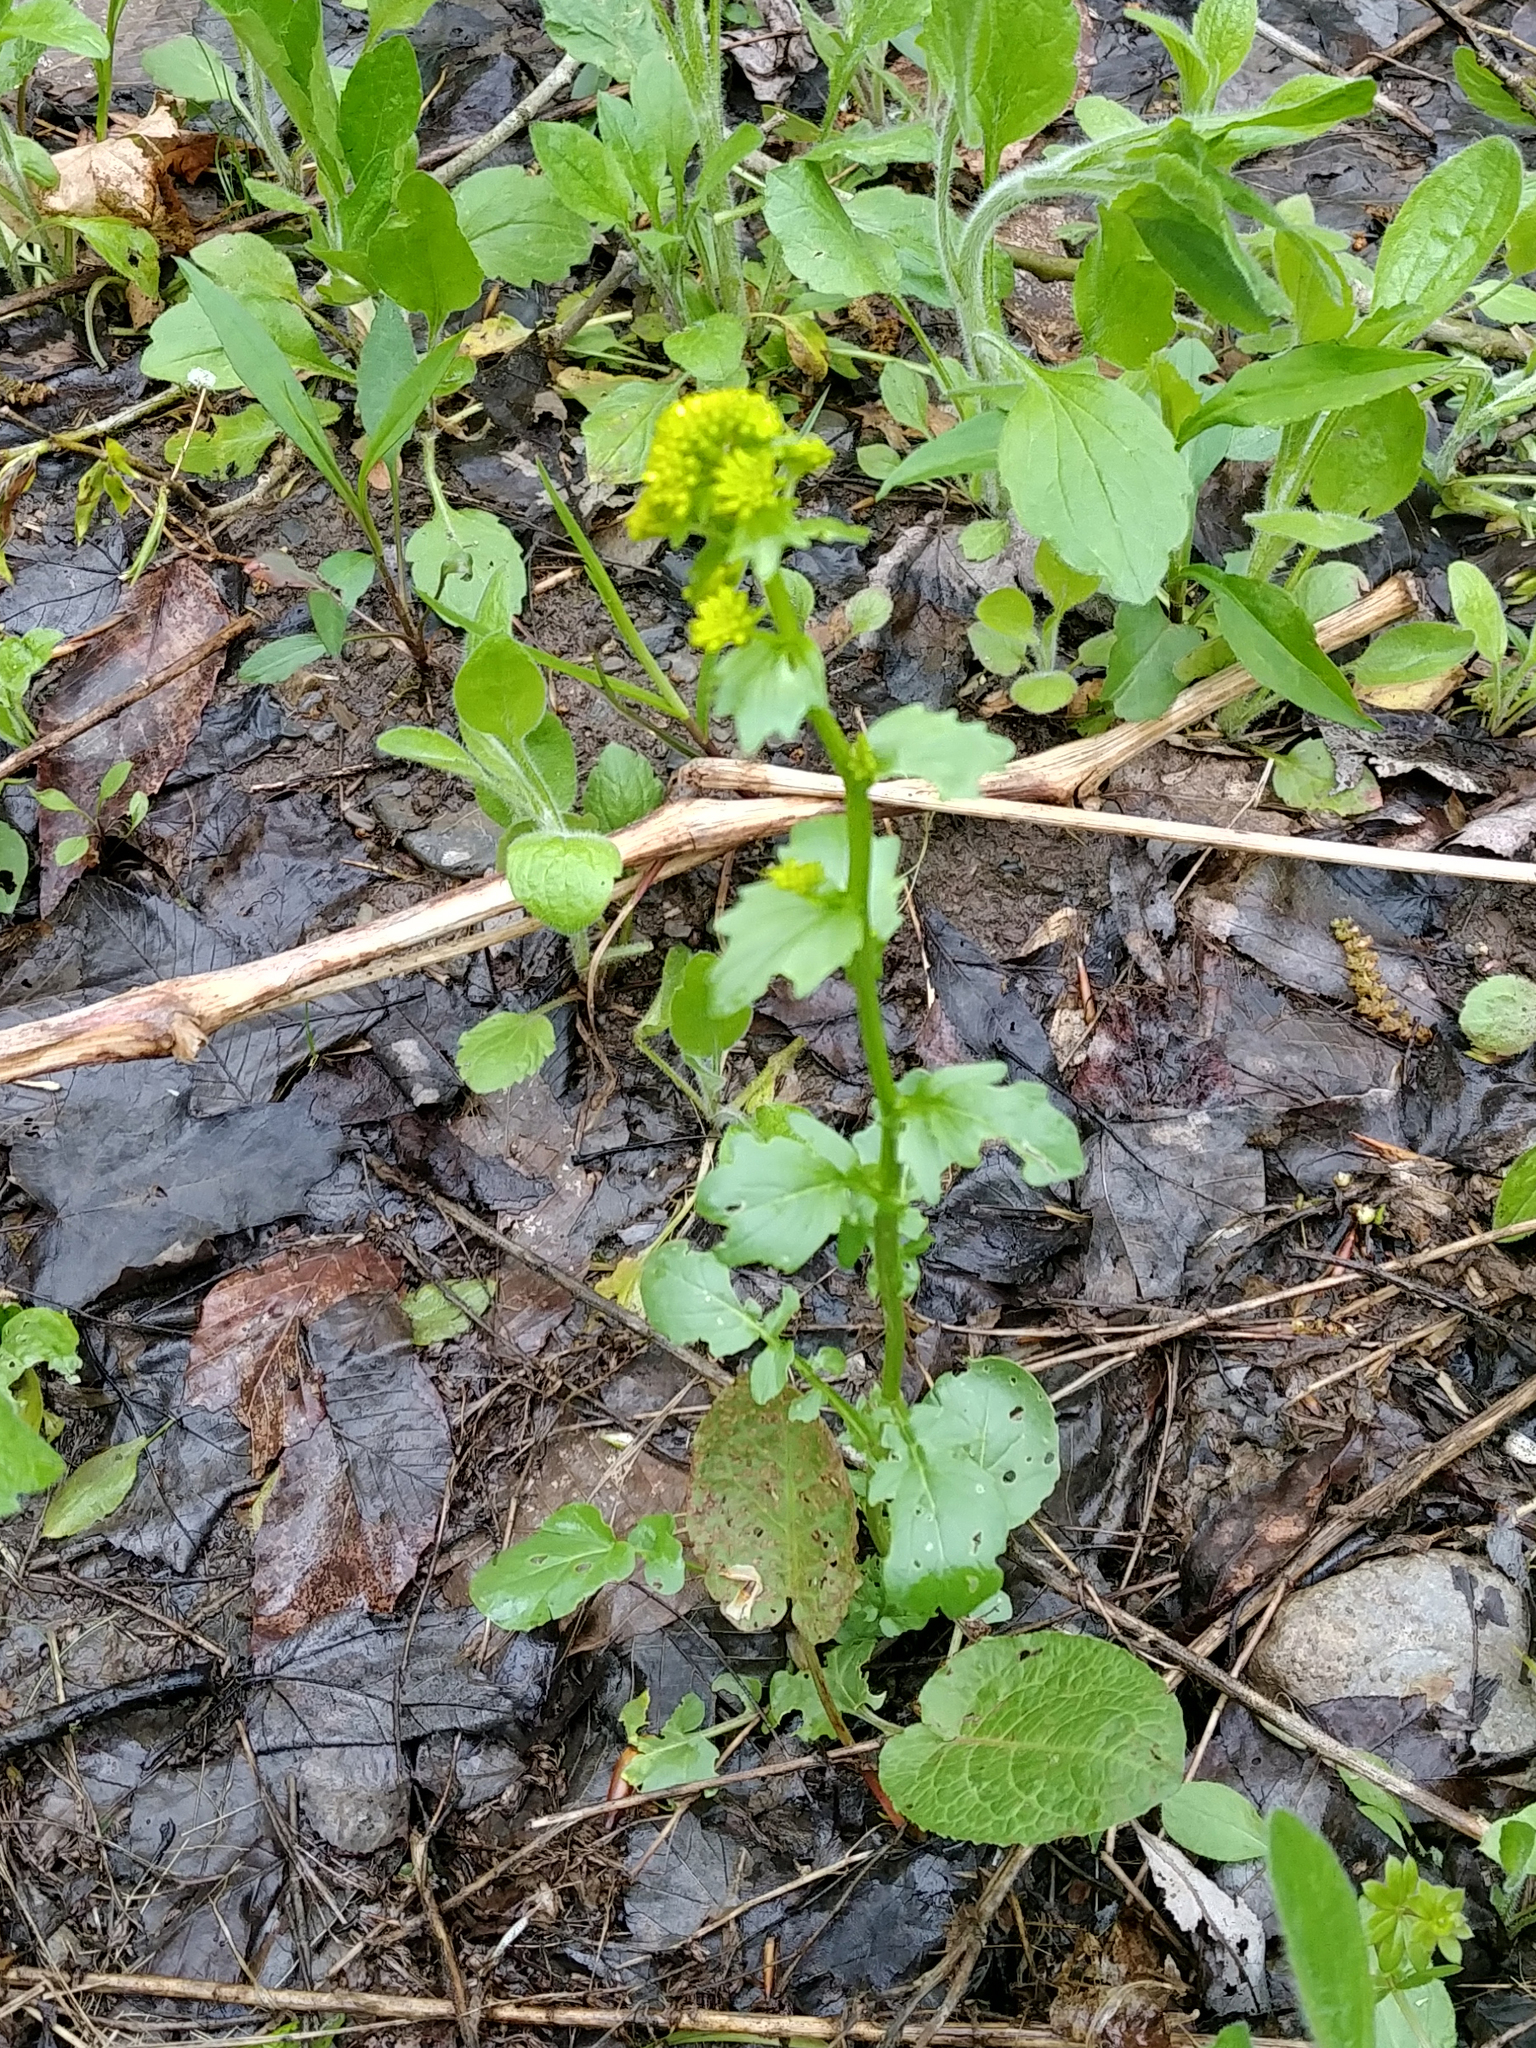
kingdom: Plantae
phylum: Tracheophyta
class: Magnoliopsida
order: Brassicales
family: Brassicaceae
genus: Barbarea
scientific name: Barbarea vulgaris
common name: Cressy-greens
